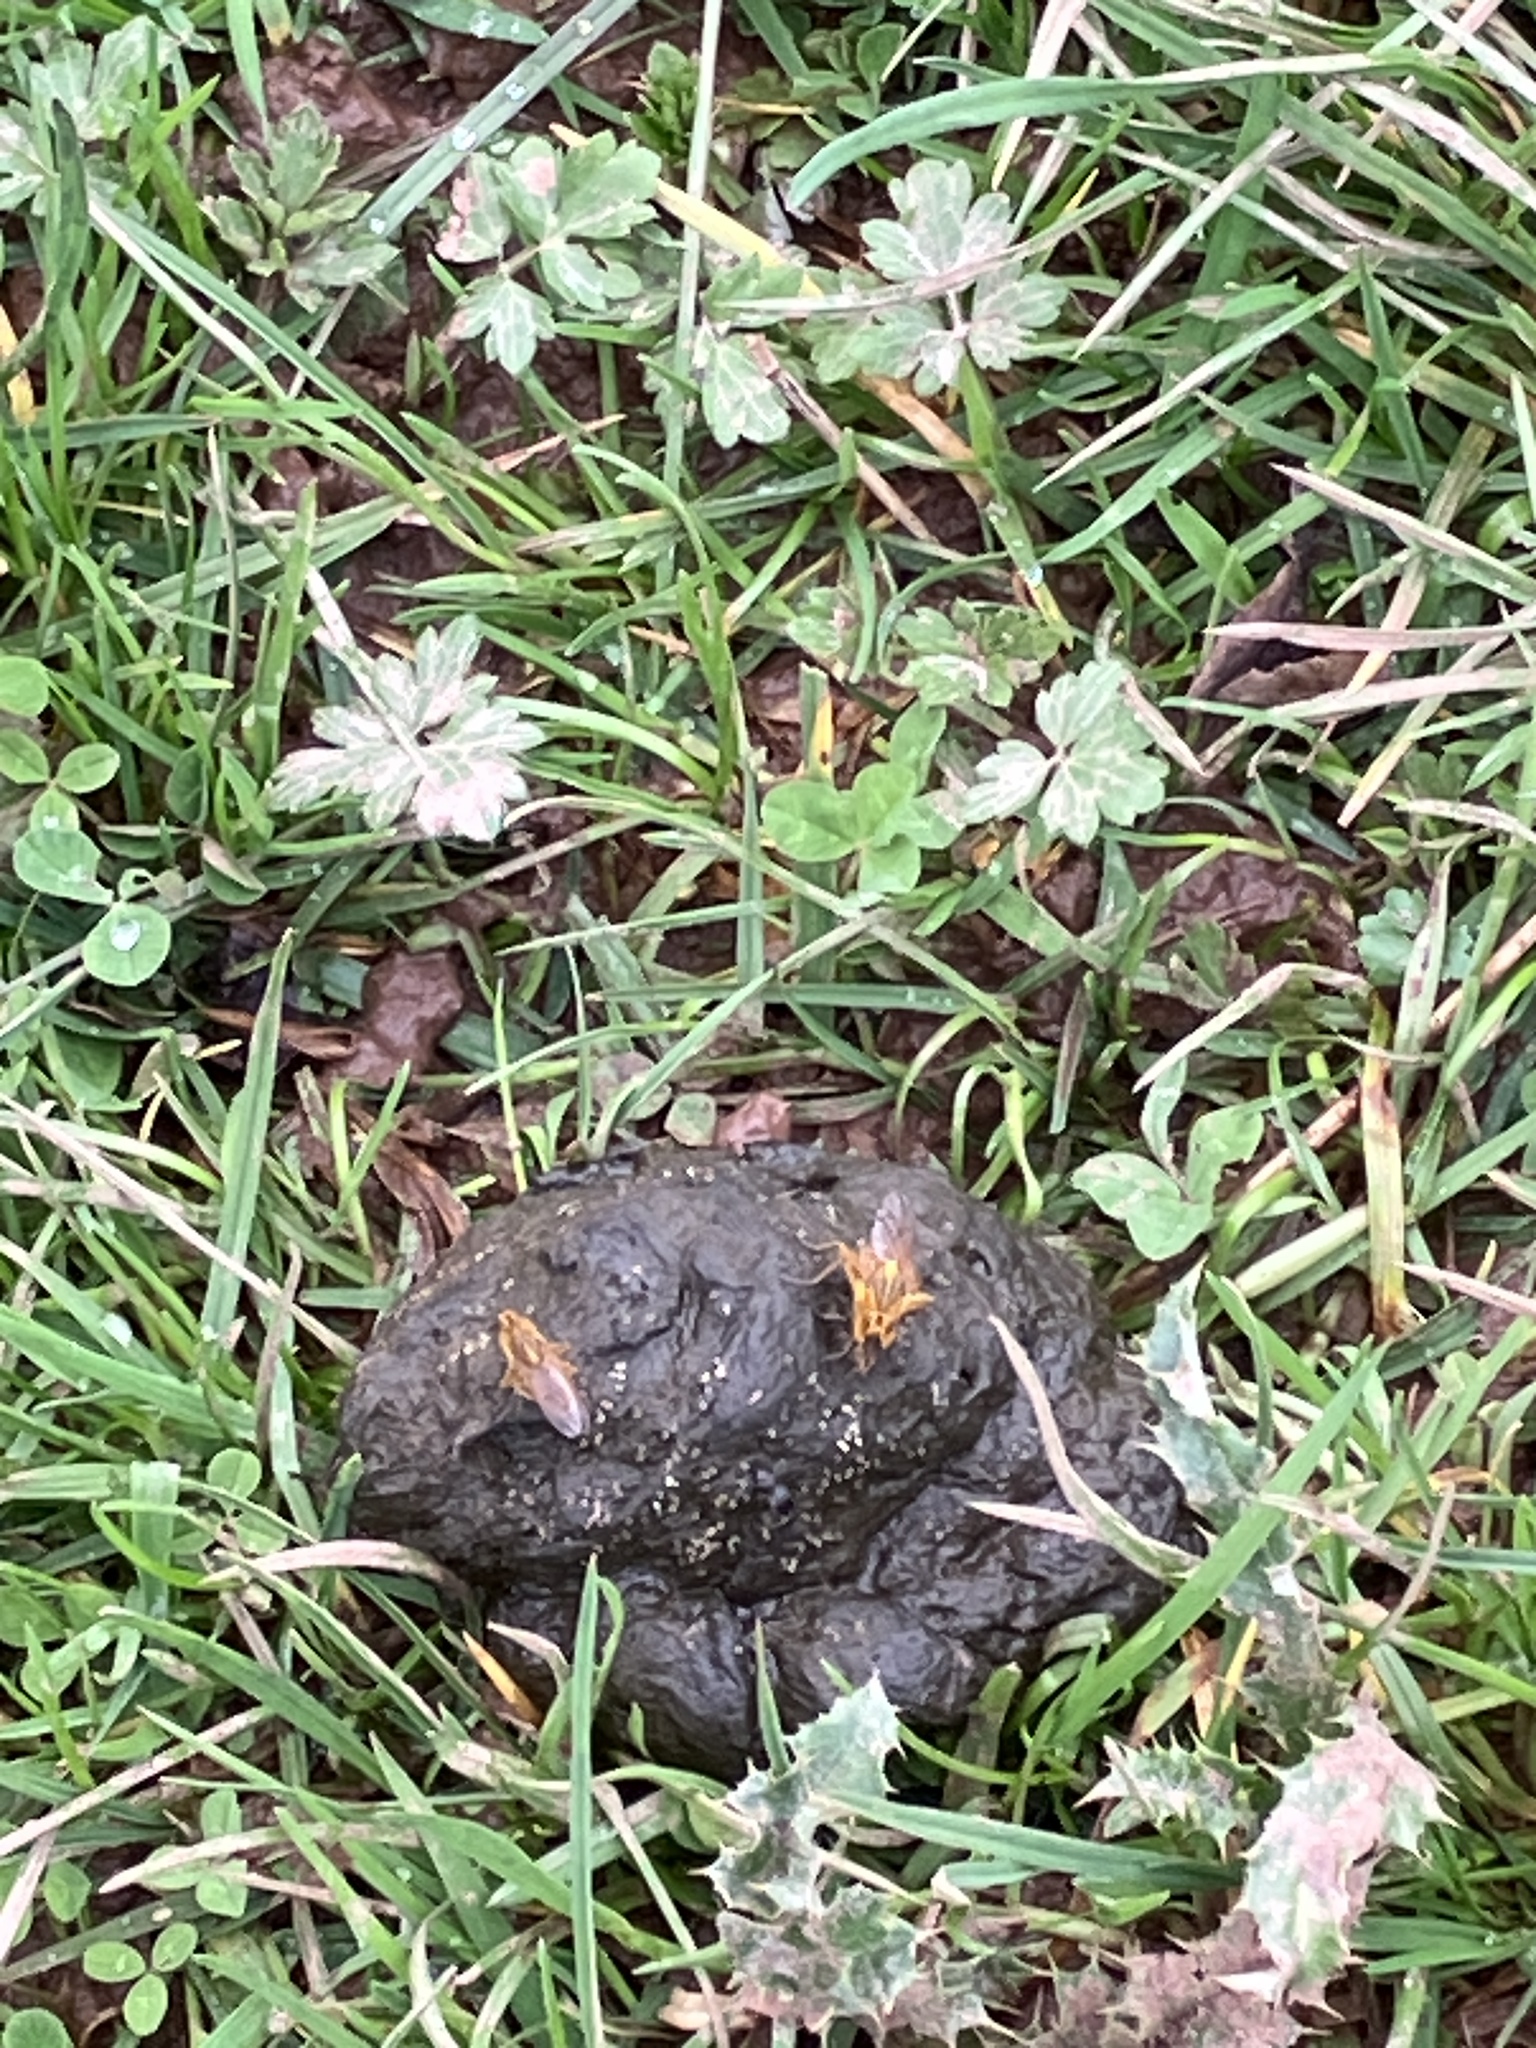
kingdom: Animalia
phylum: Arthropoda
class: Insecta
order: Diptera
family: Scathophagidae
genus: Scathophaga
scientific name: Scathophaga stercoraria
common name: Yellow dung fly
